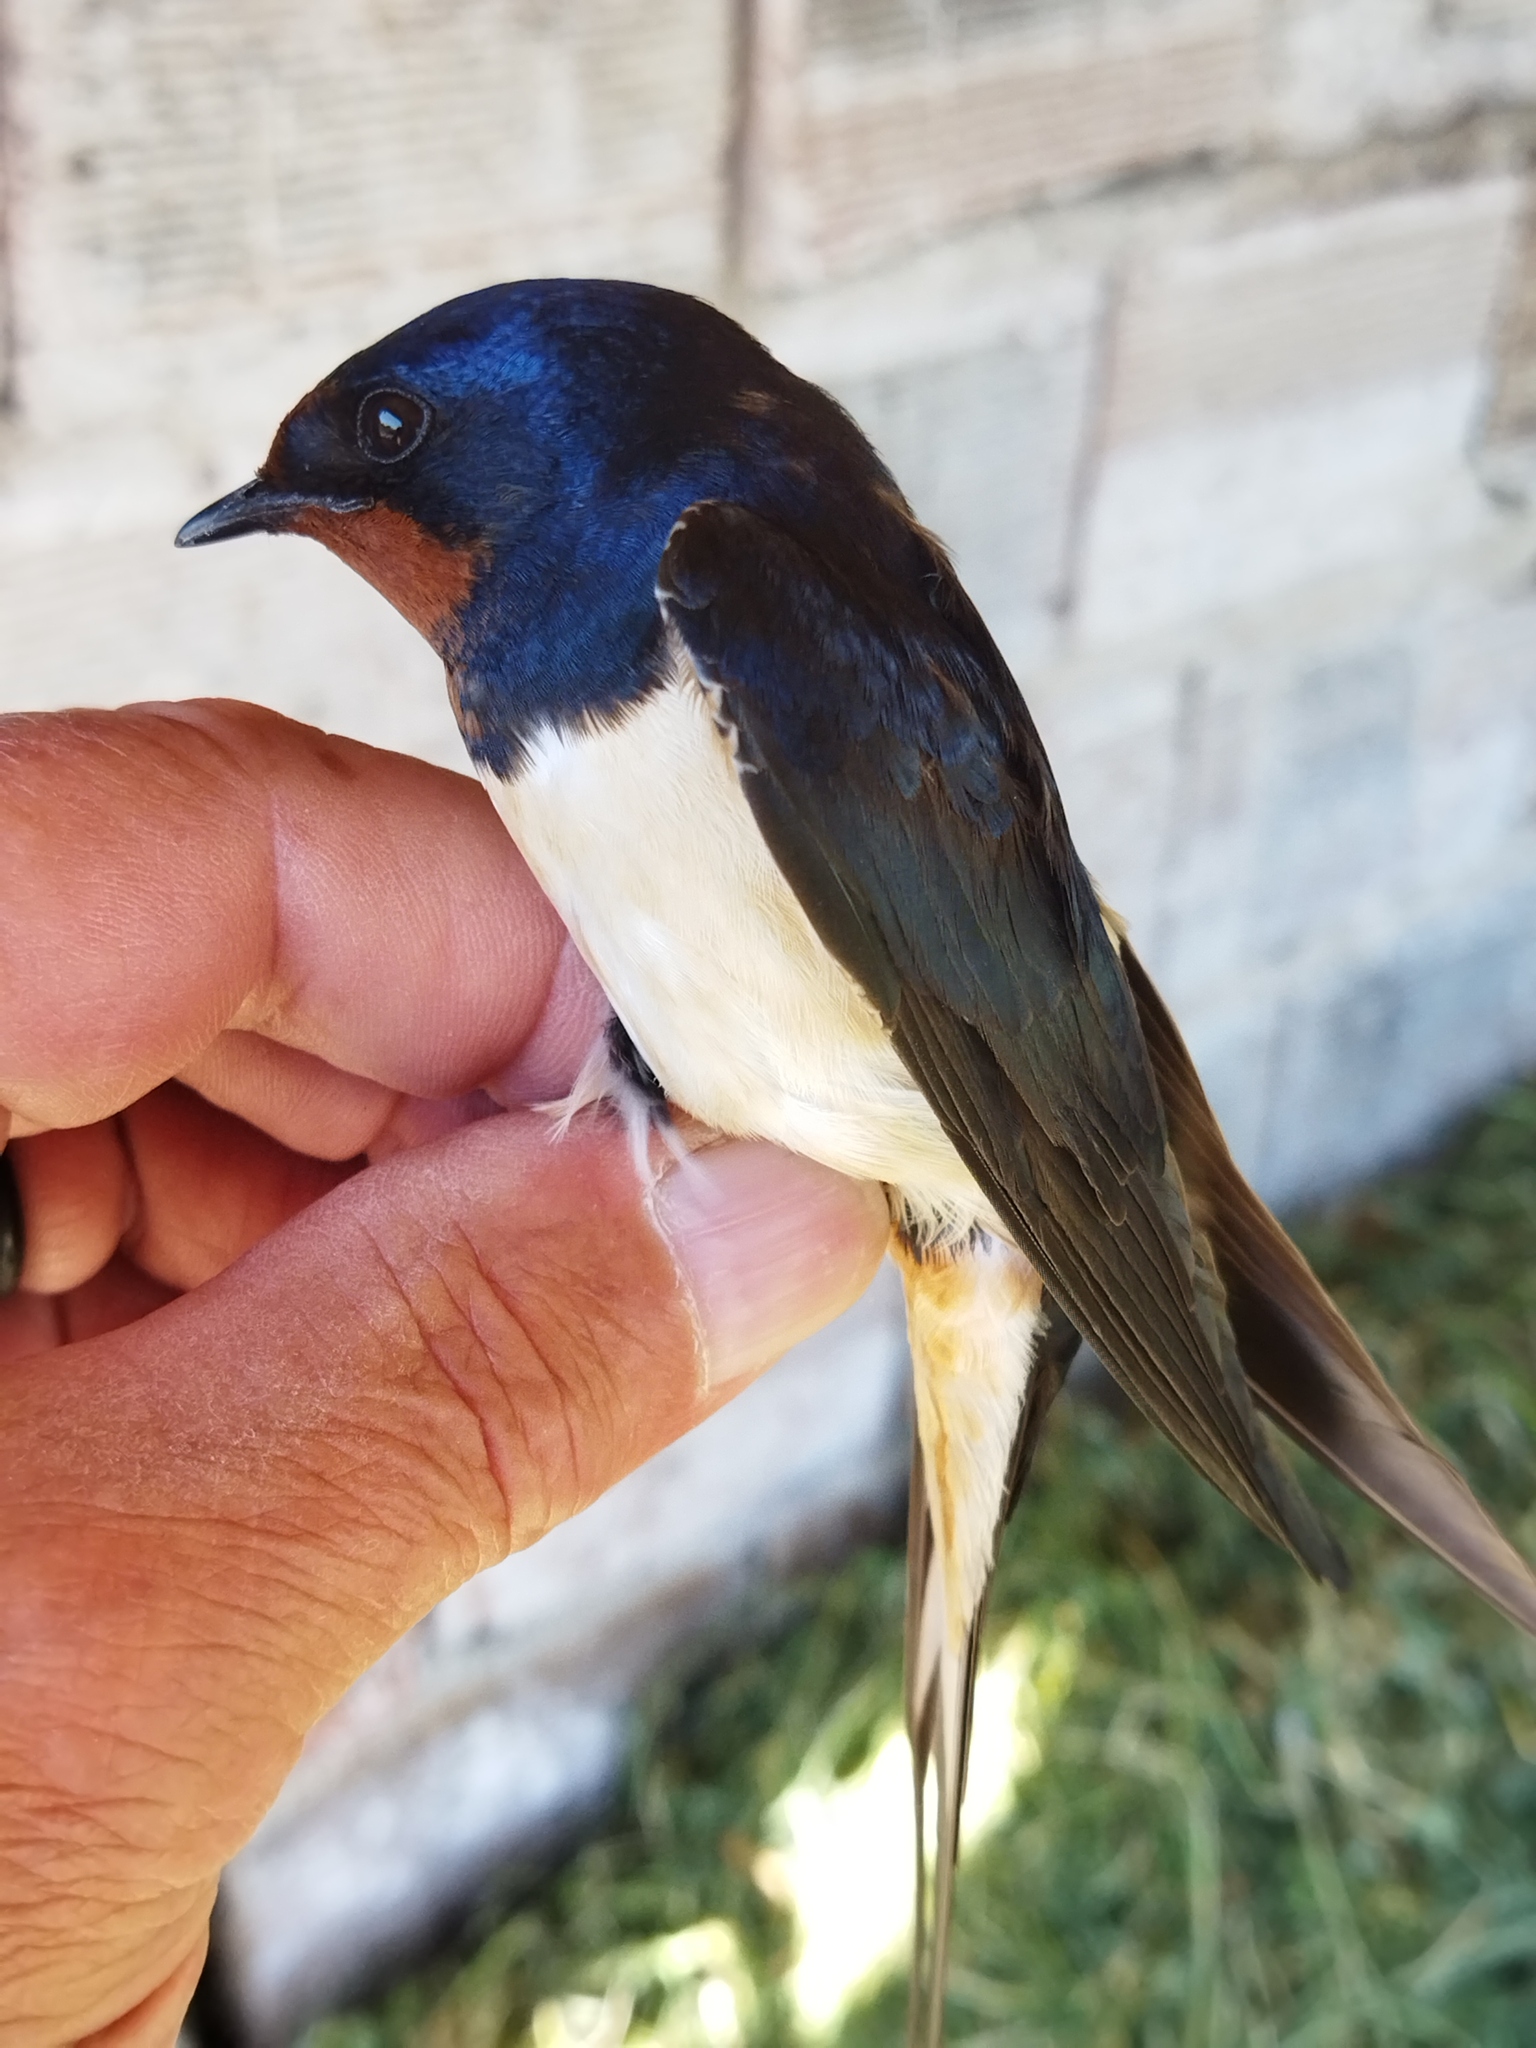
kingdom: Animalia
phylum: Chordata
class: Aves
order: Passeriformes
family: Hirundinidae
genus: Hirundo
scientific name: Hirundo rustica
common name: Barn swallow
